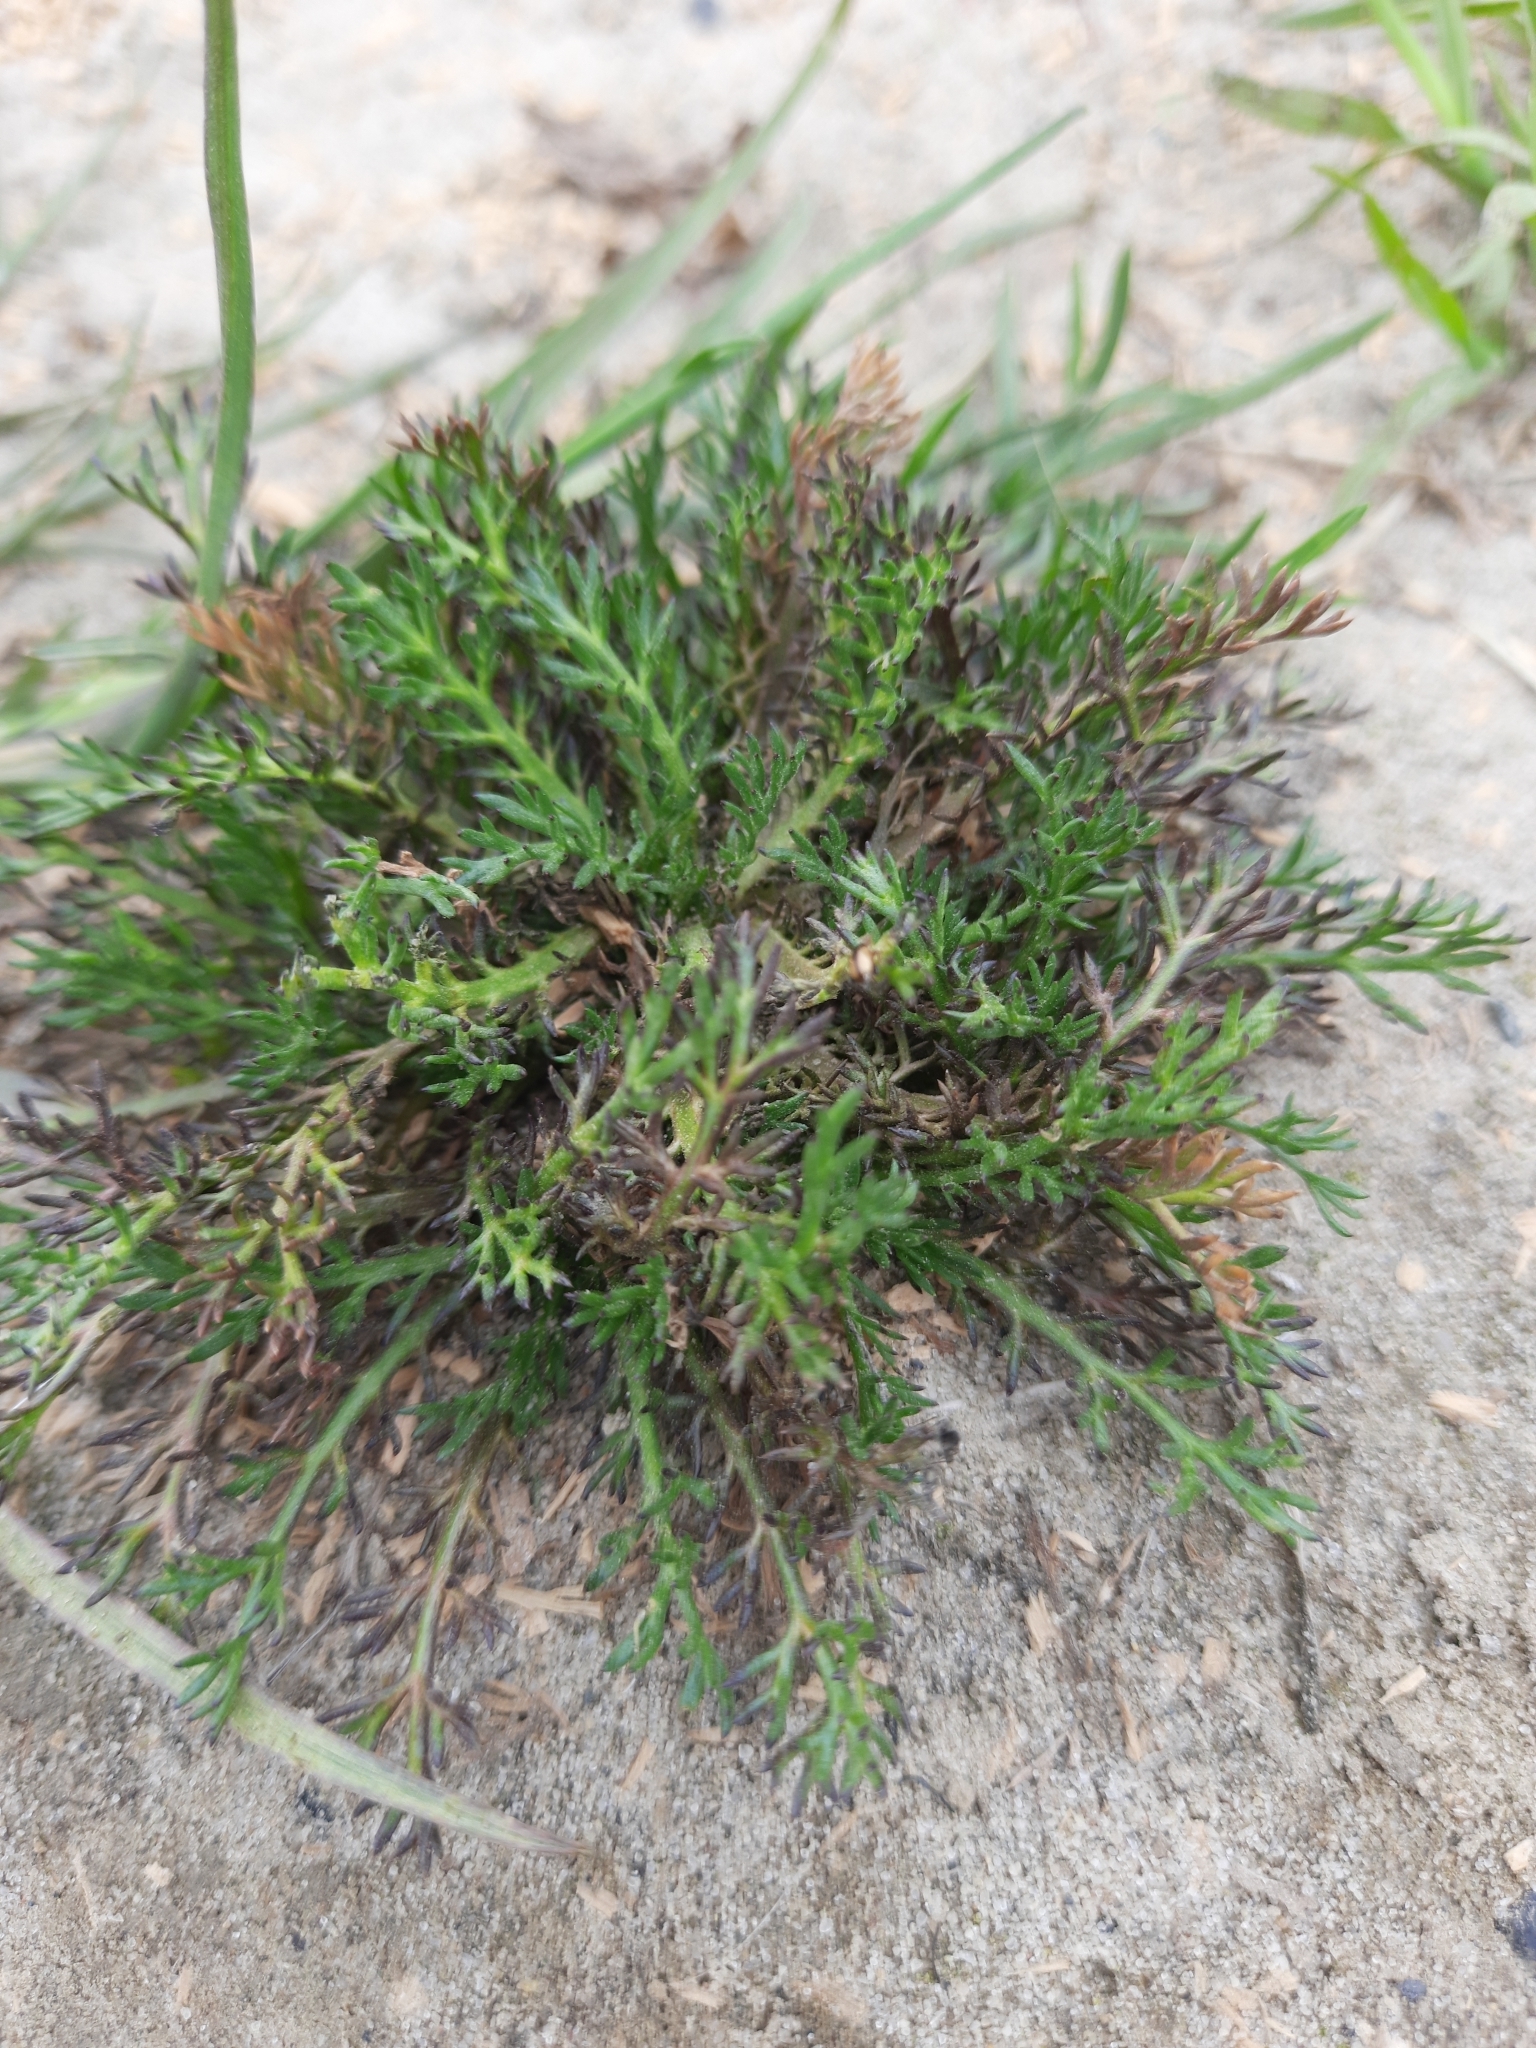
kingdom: Plantae
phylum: Tracheophyta
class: Magnoliopsida
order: Asterales
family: Asteraceae
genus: Matricaria
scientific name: Matricaria discoidea
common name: Disc mayweed
